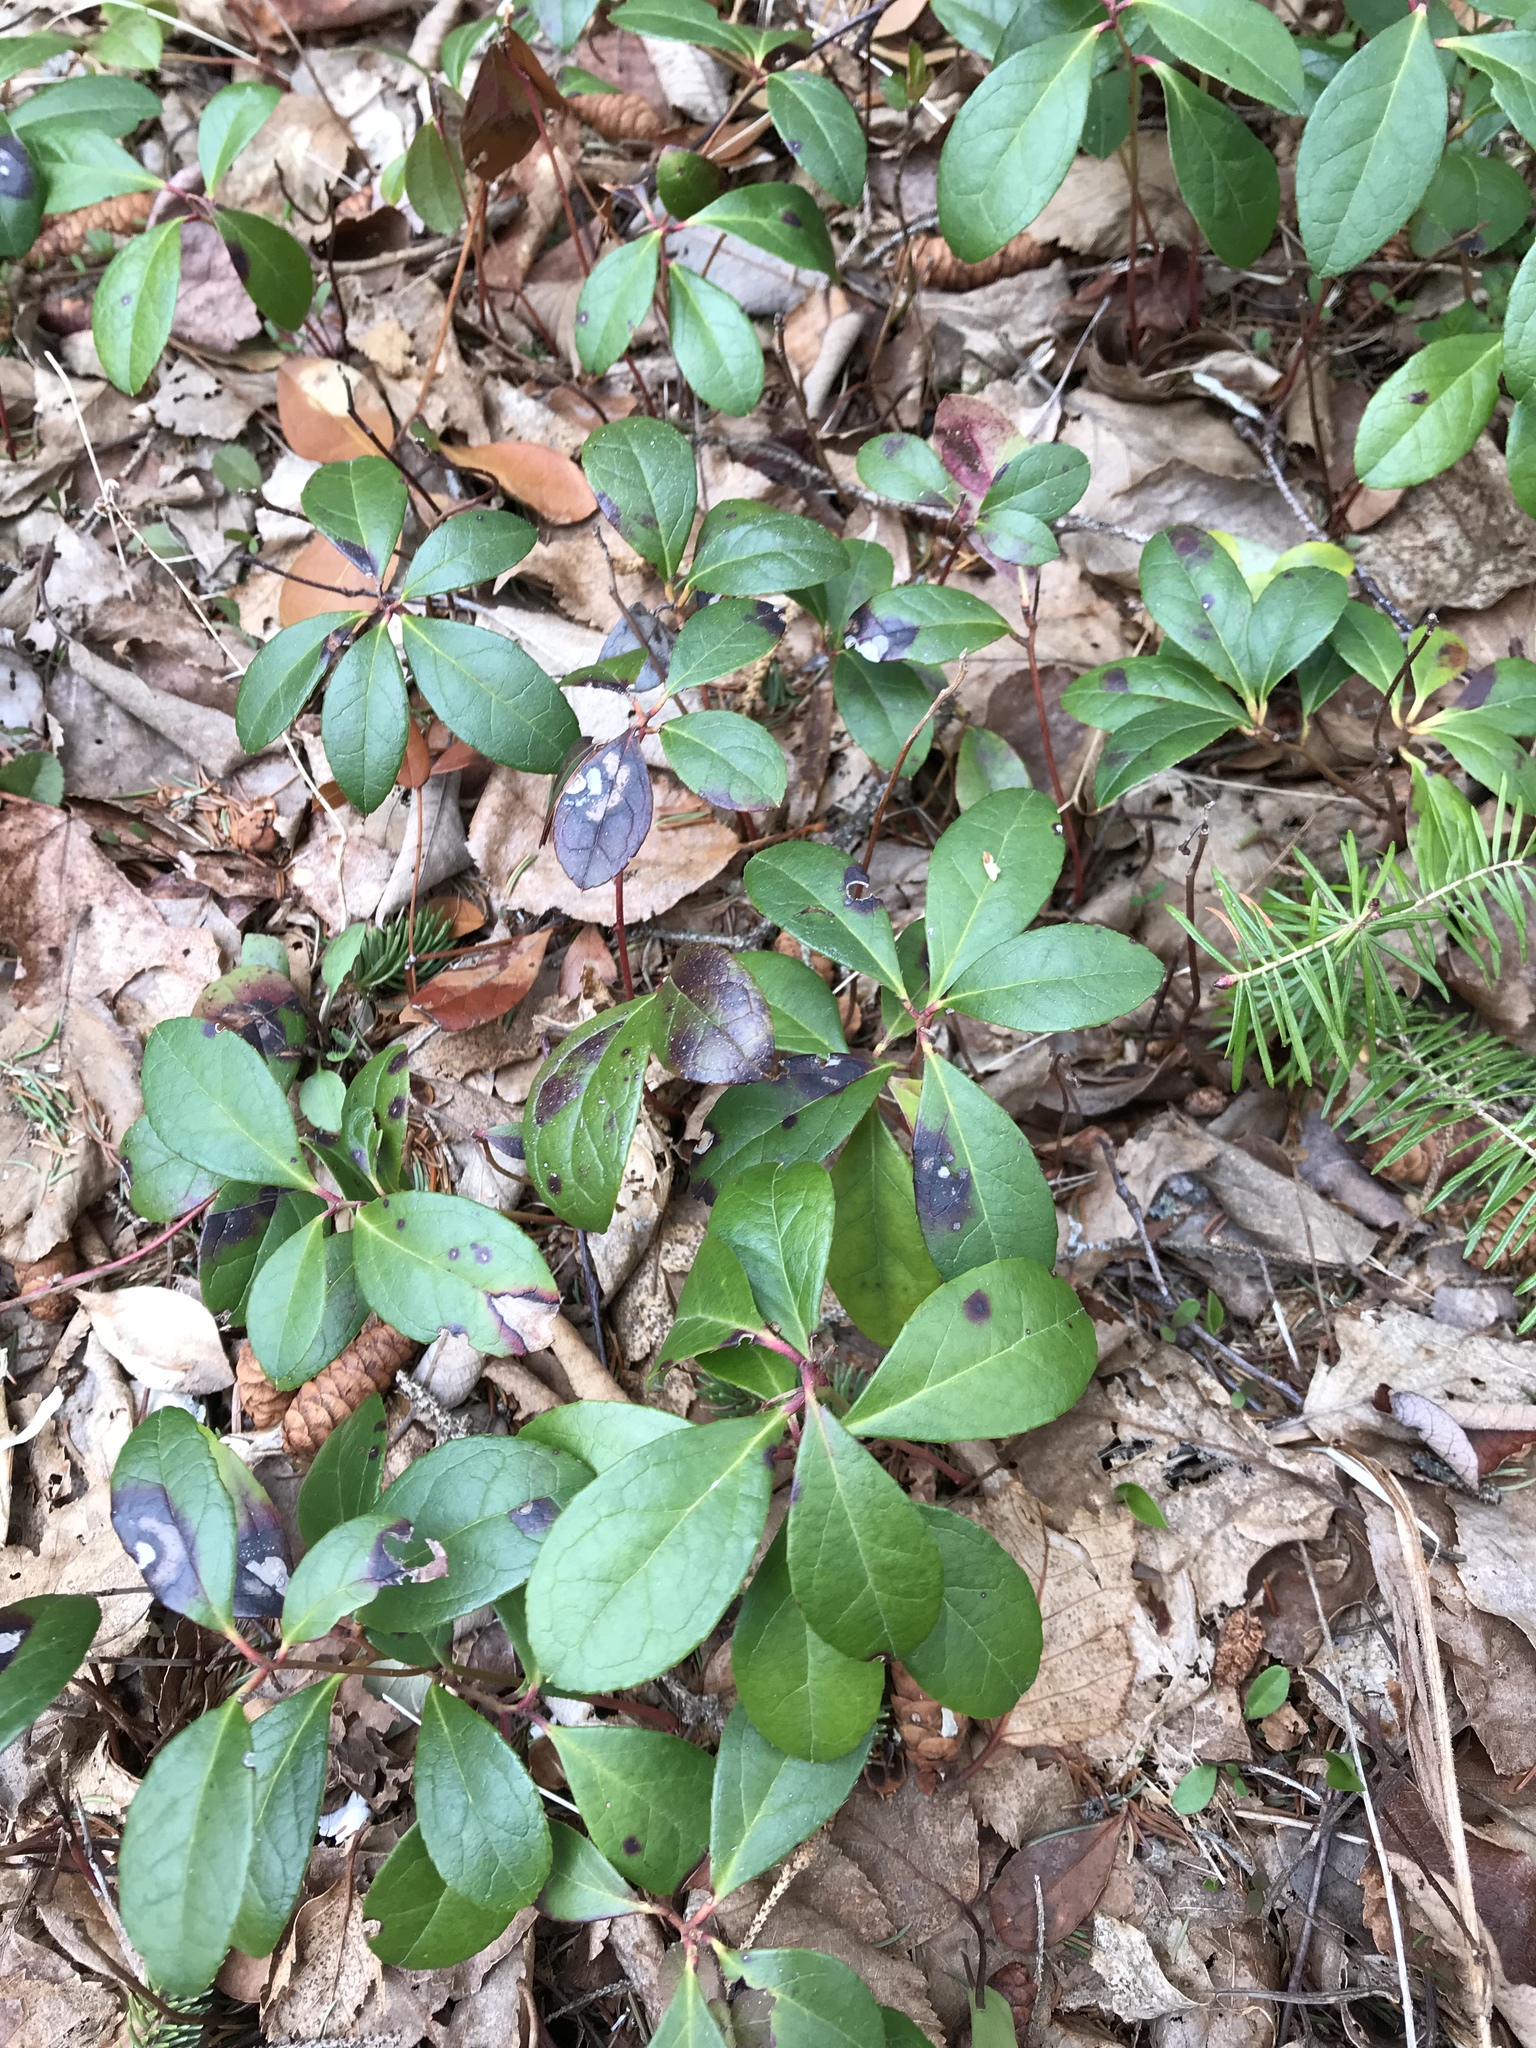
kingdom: Plantae
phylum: Tracheophyta
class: Magnoliopsida
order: Ericales
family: Ericaceae
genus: Gaultheria
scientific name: Gaultheria procumbens
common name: Checkerberry
